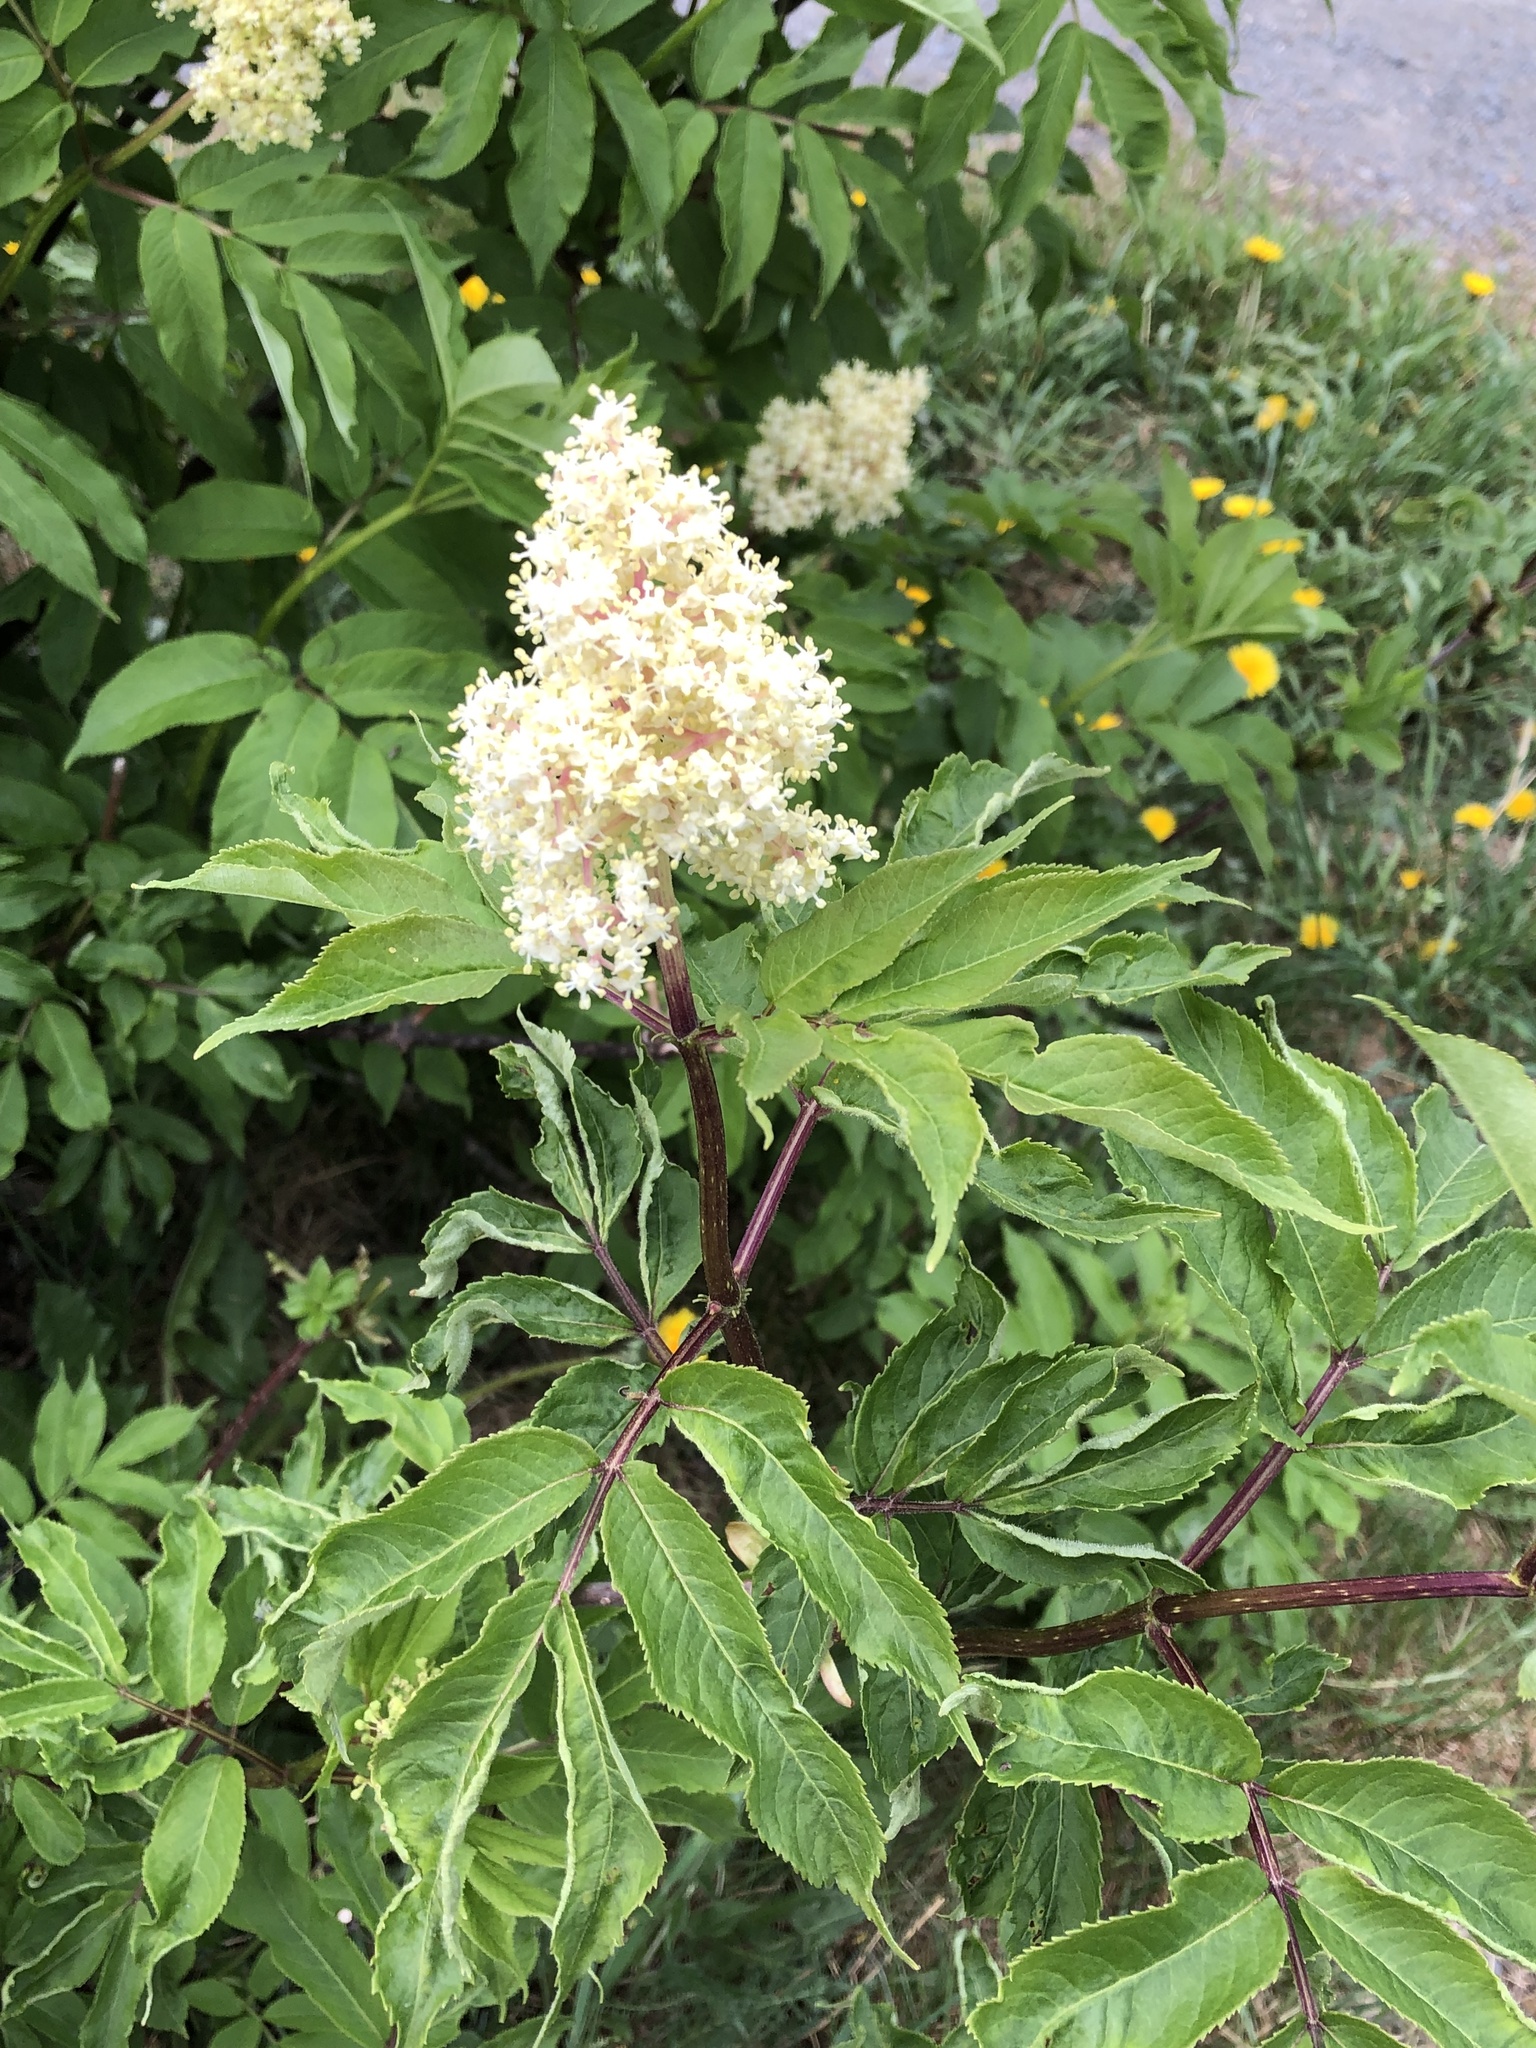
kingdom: Plantae
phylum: Tracheophyta
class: Magnoliopsida
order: Dipsacales
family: Viburnaceae
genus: Sambucus
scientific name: Sambucus racemosa
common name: Red-berried elder
